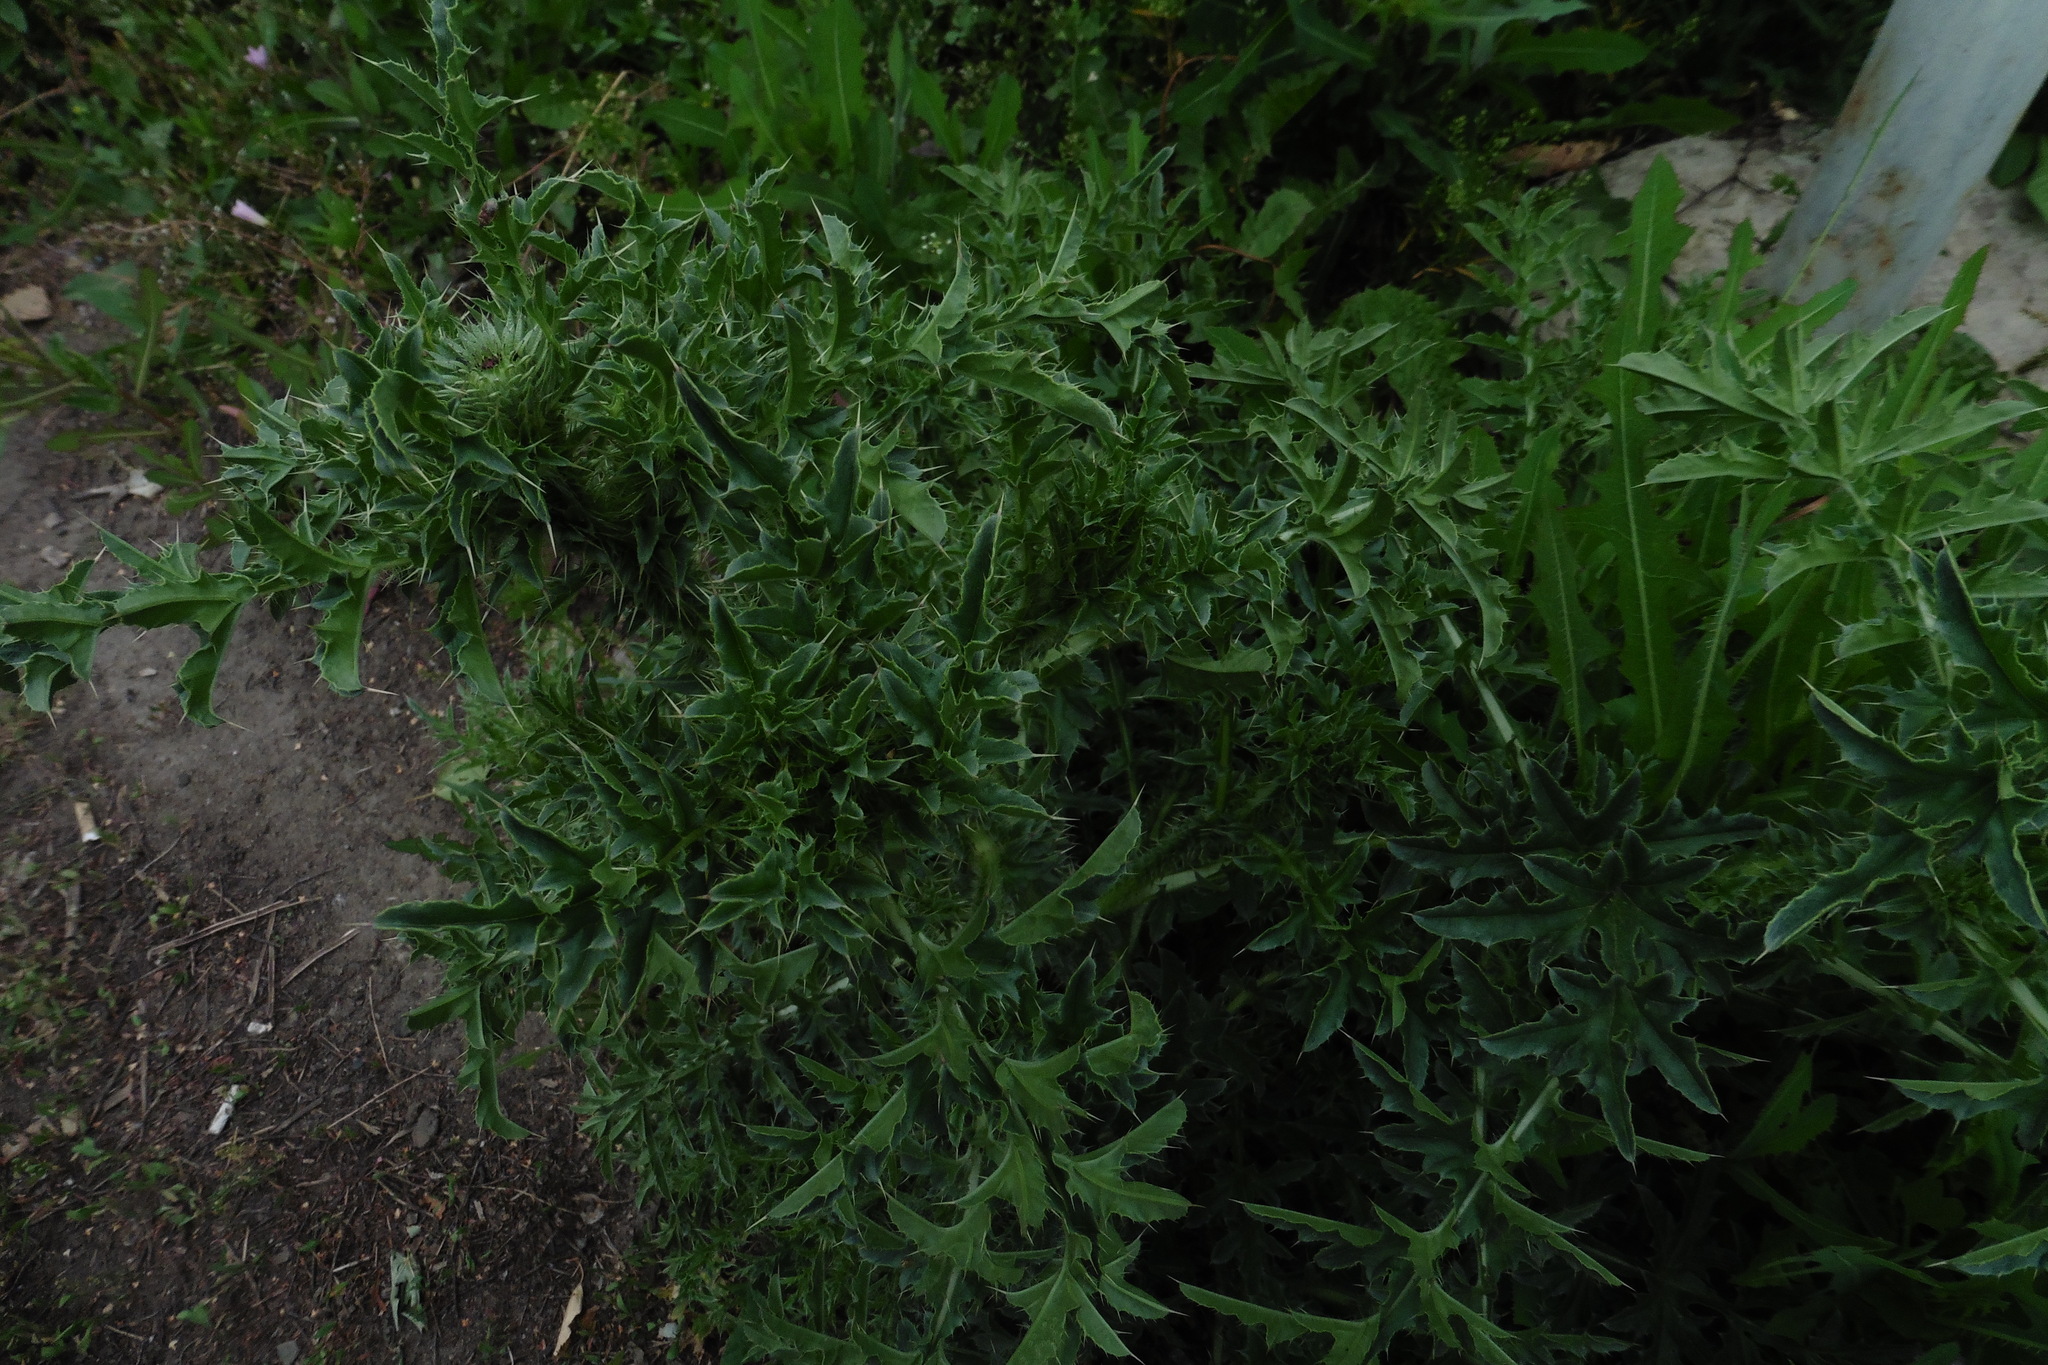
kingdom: Plantae
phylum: Tracheophyta
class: Magnoliopsida
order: Asterales
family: Asteraceae
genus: Carduus
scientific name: Carduus acanthoides
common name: Plumeless thistle
